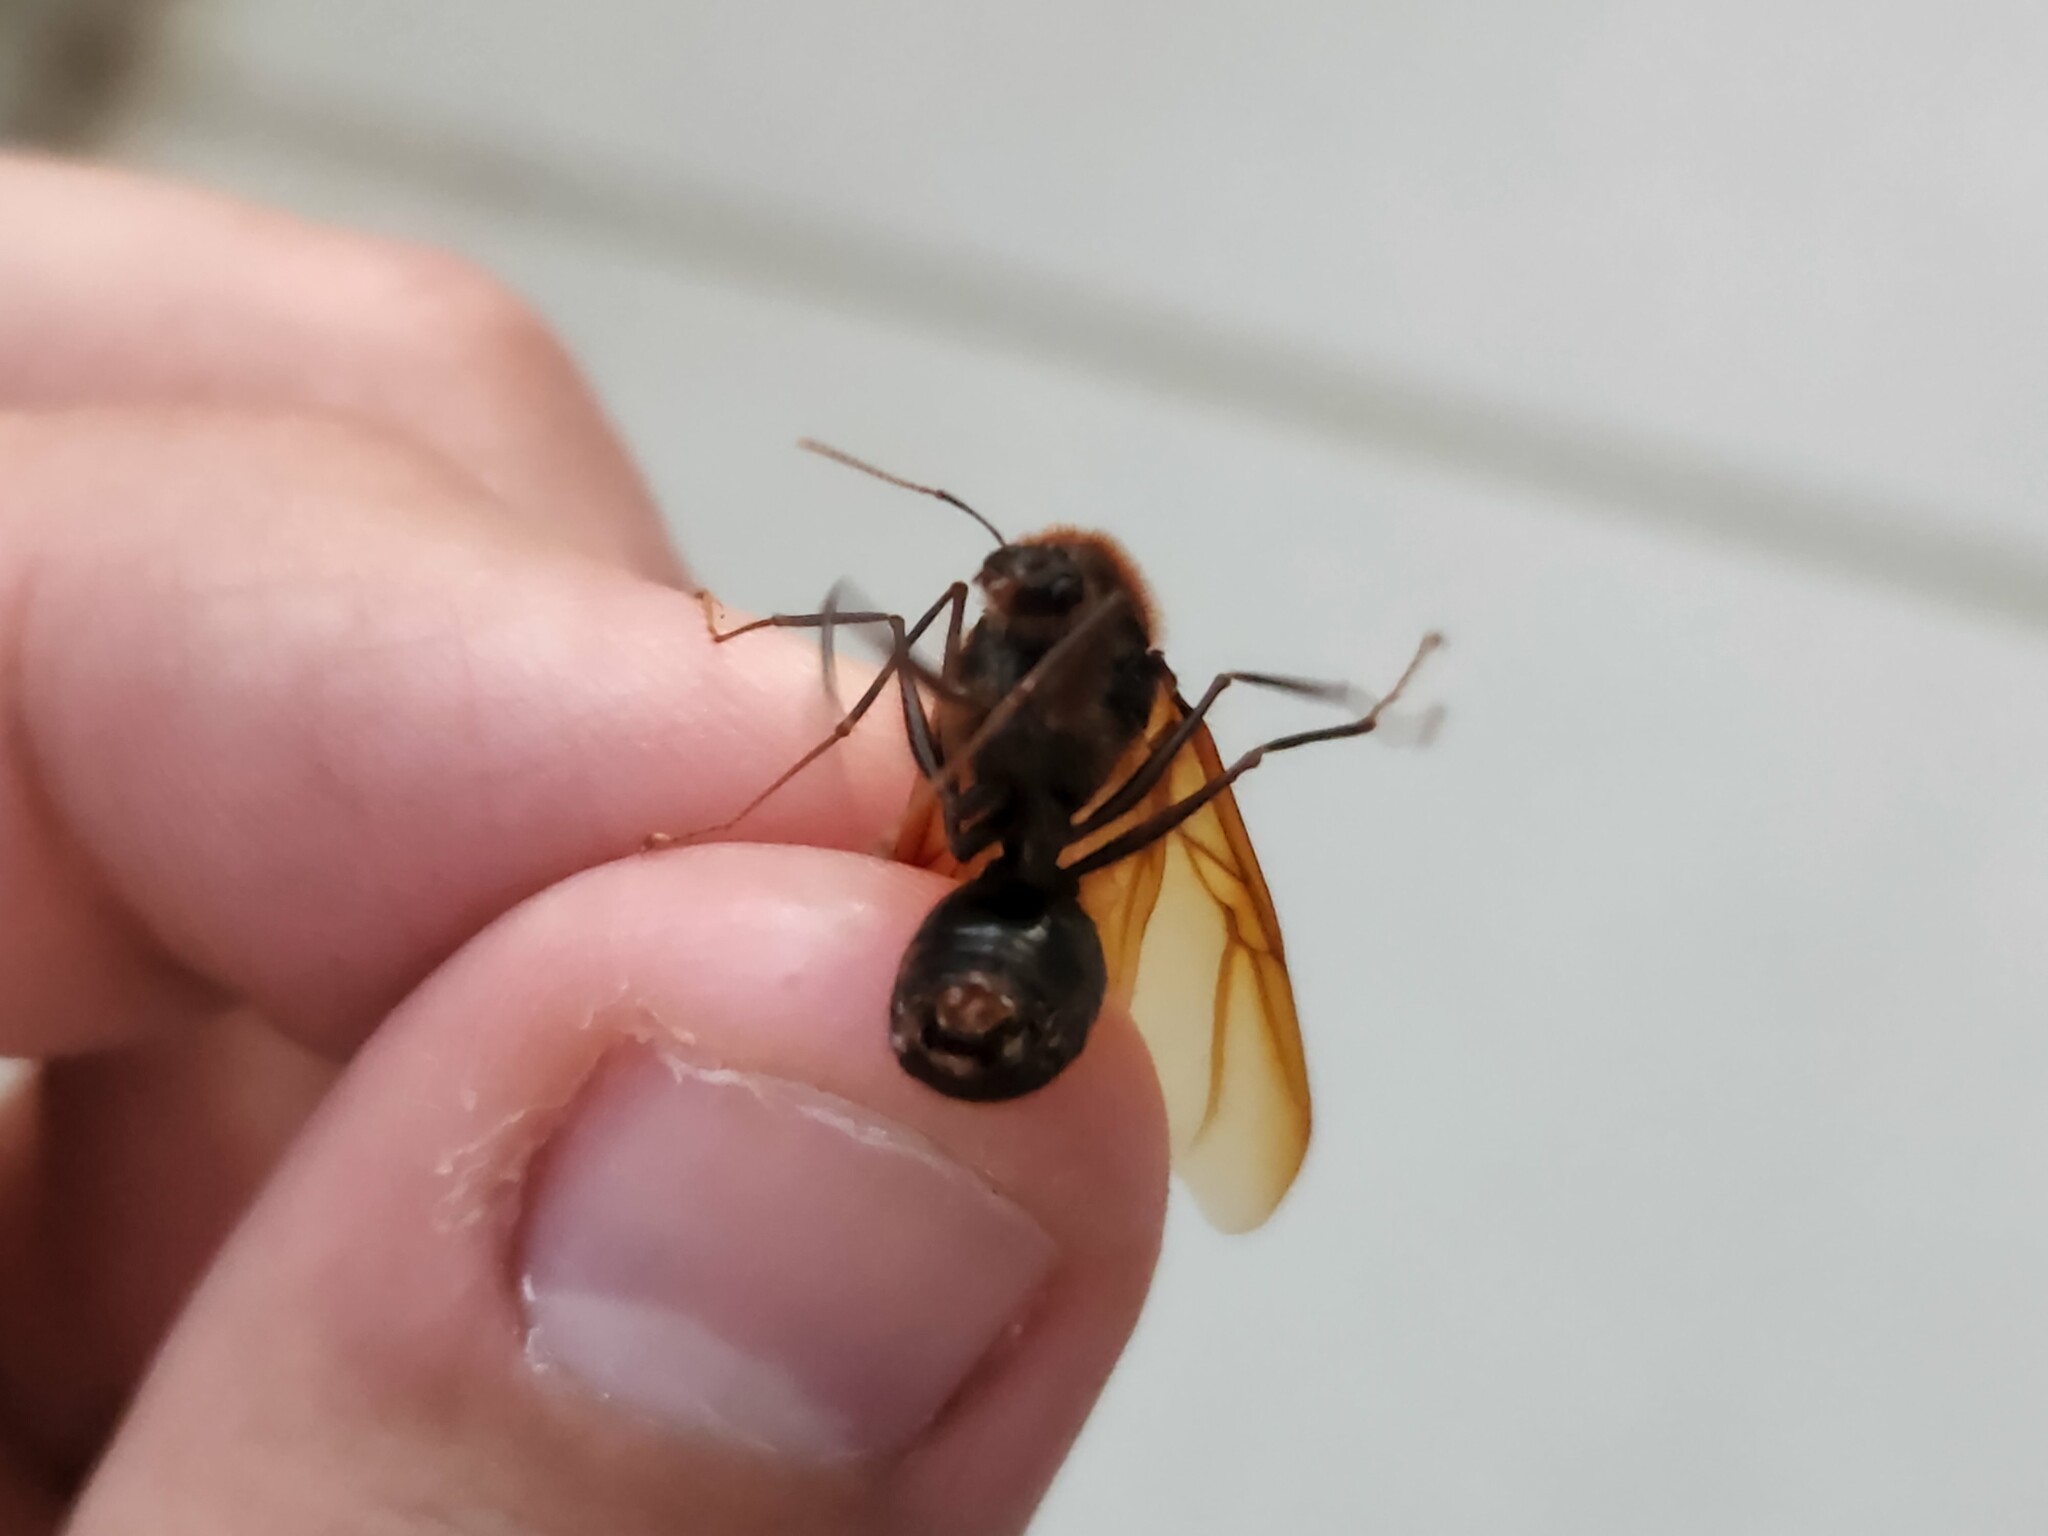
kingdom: Animalia
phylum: Arthropoda
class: Insecta
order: Hymenoptera
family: Formicidae
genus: Atta
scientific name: Atta
